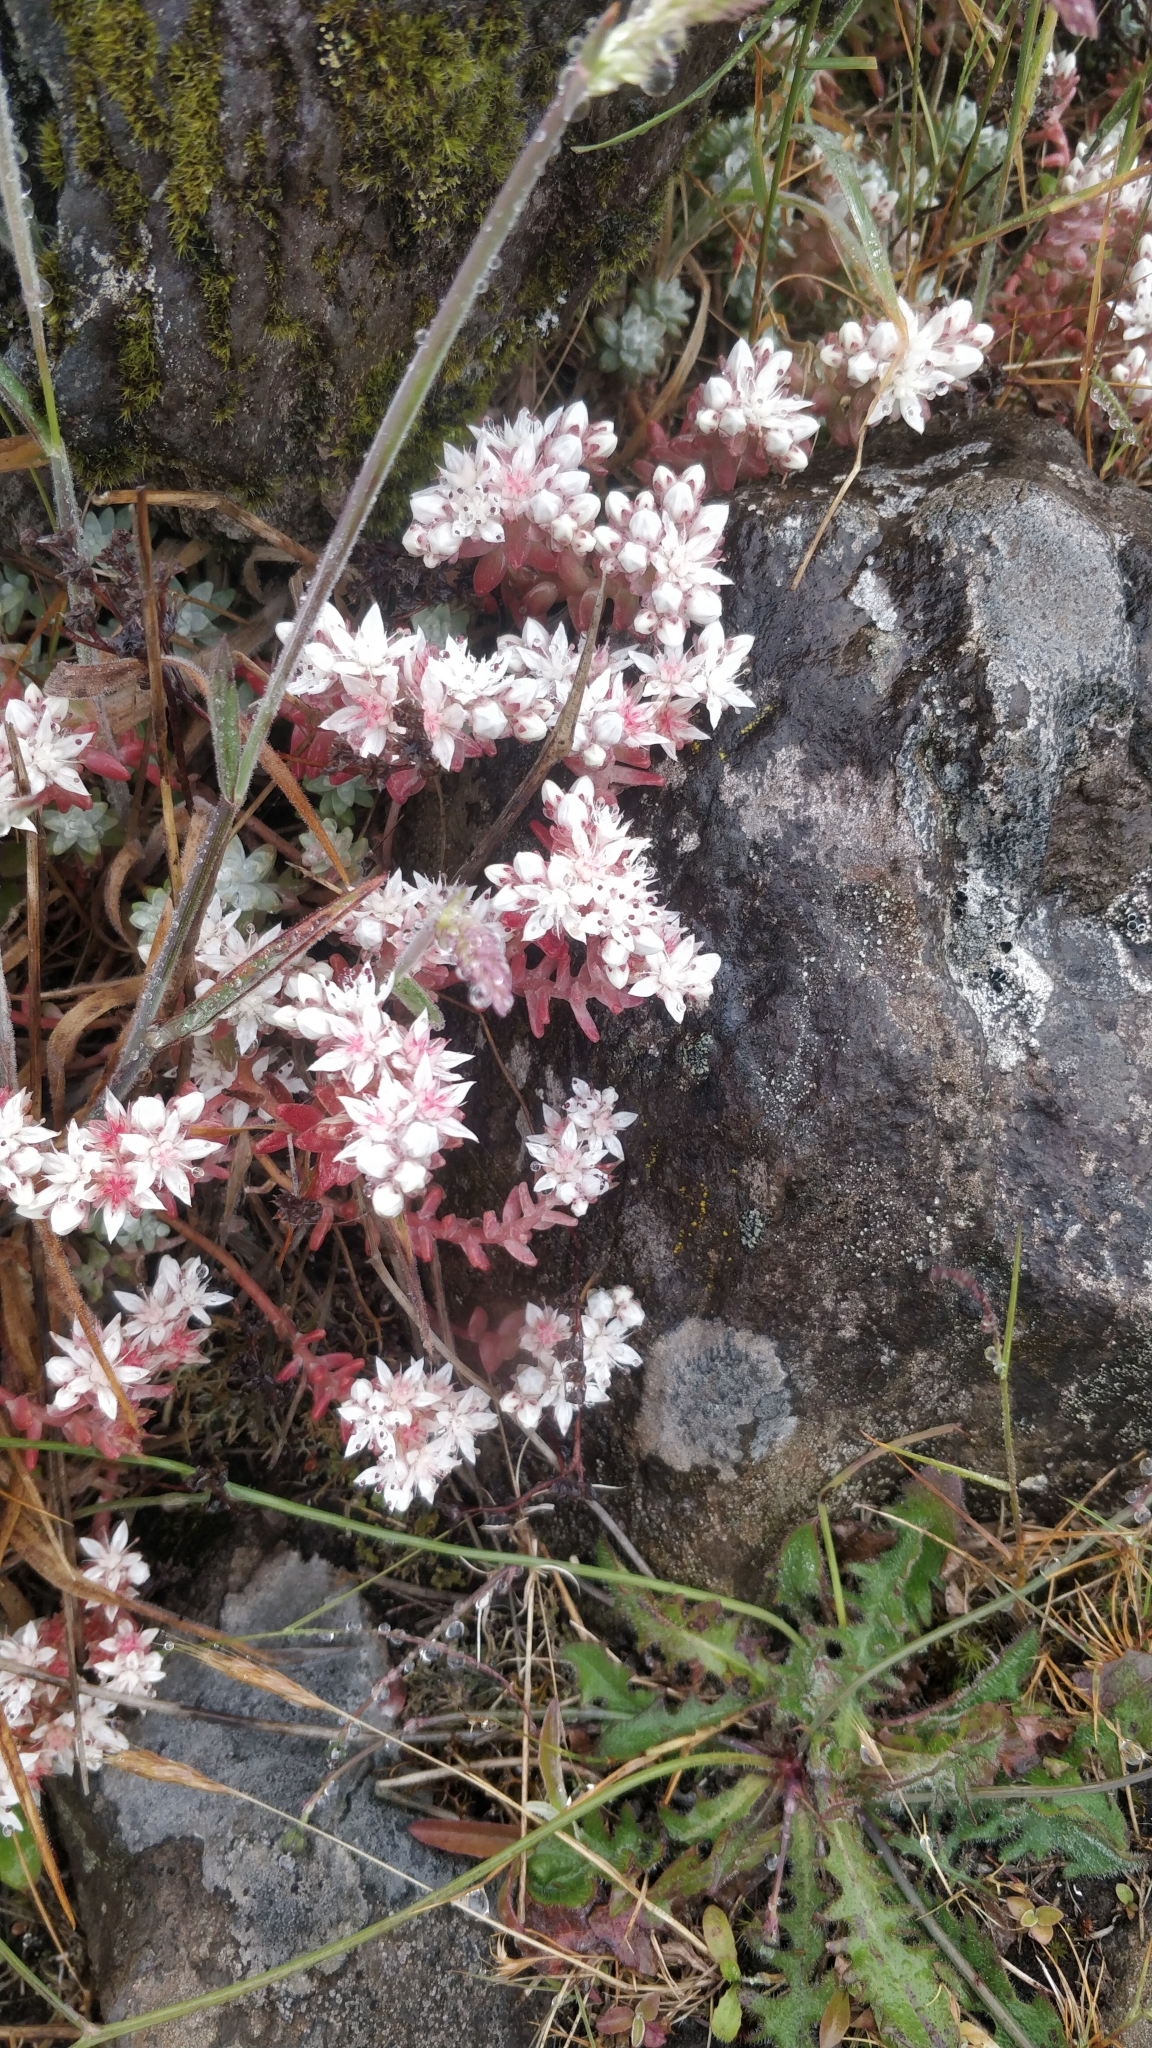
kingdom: Plantae
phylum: Tracheophyta
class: Magnoliopsida
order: Saxifragales
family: Crassulaceae
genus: Sedum
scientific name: Sedum farinosum
